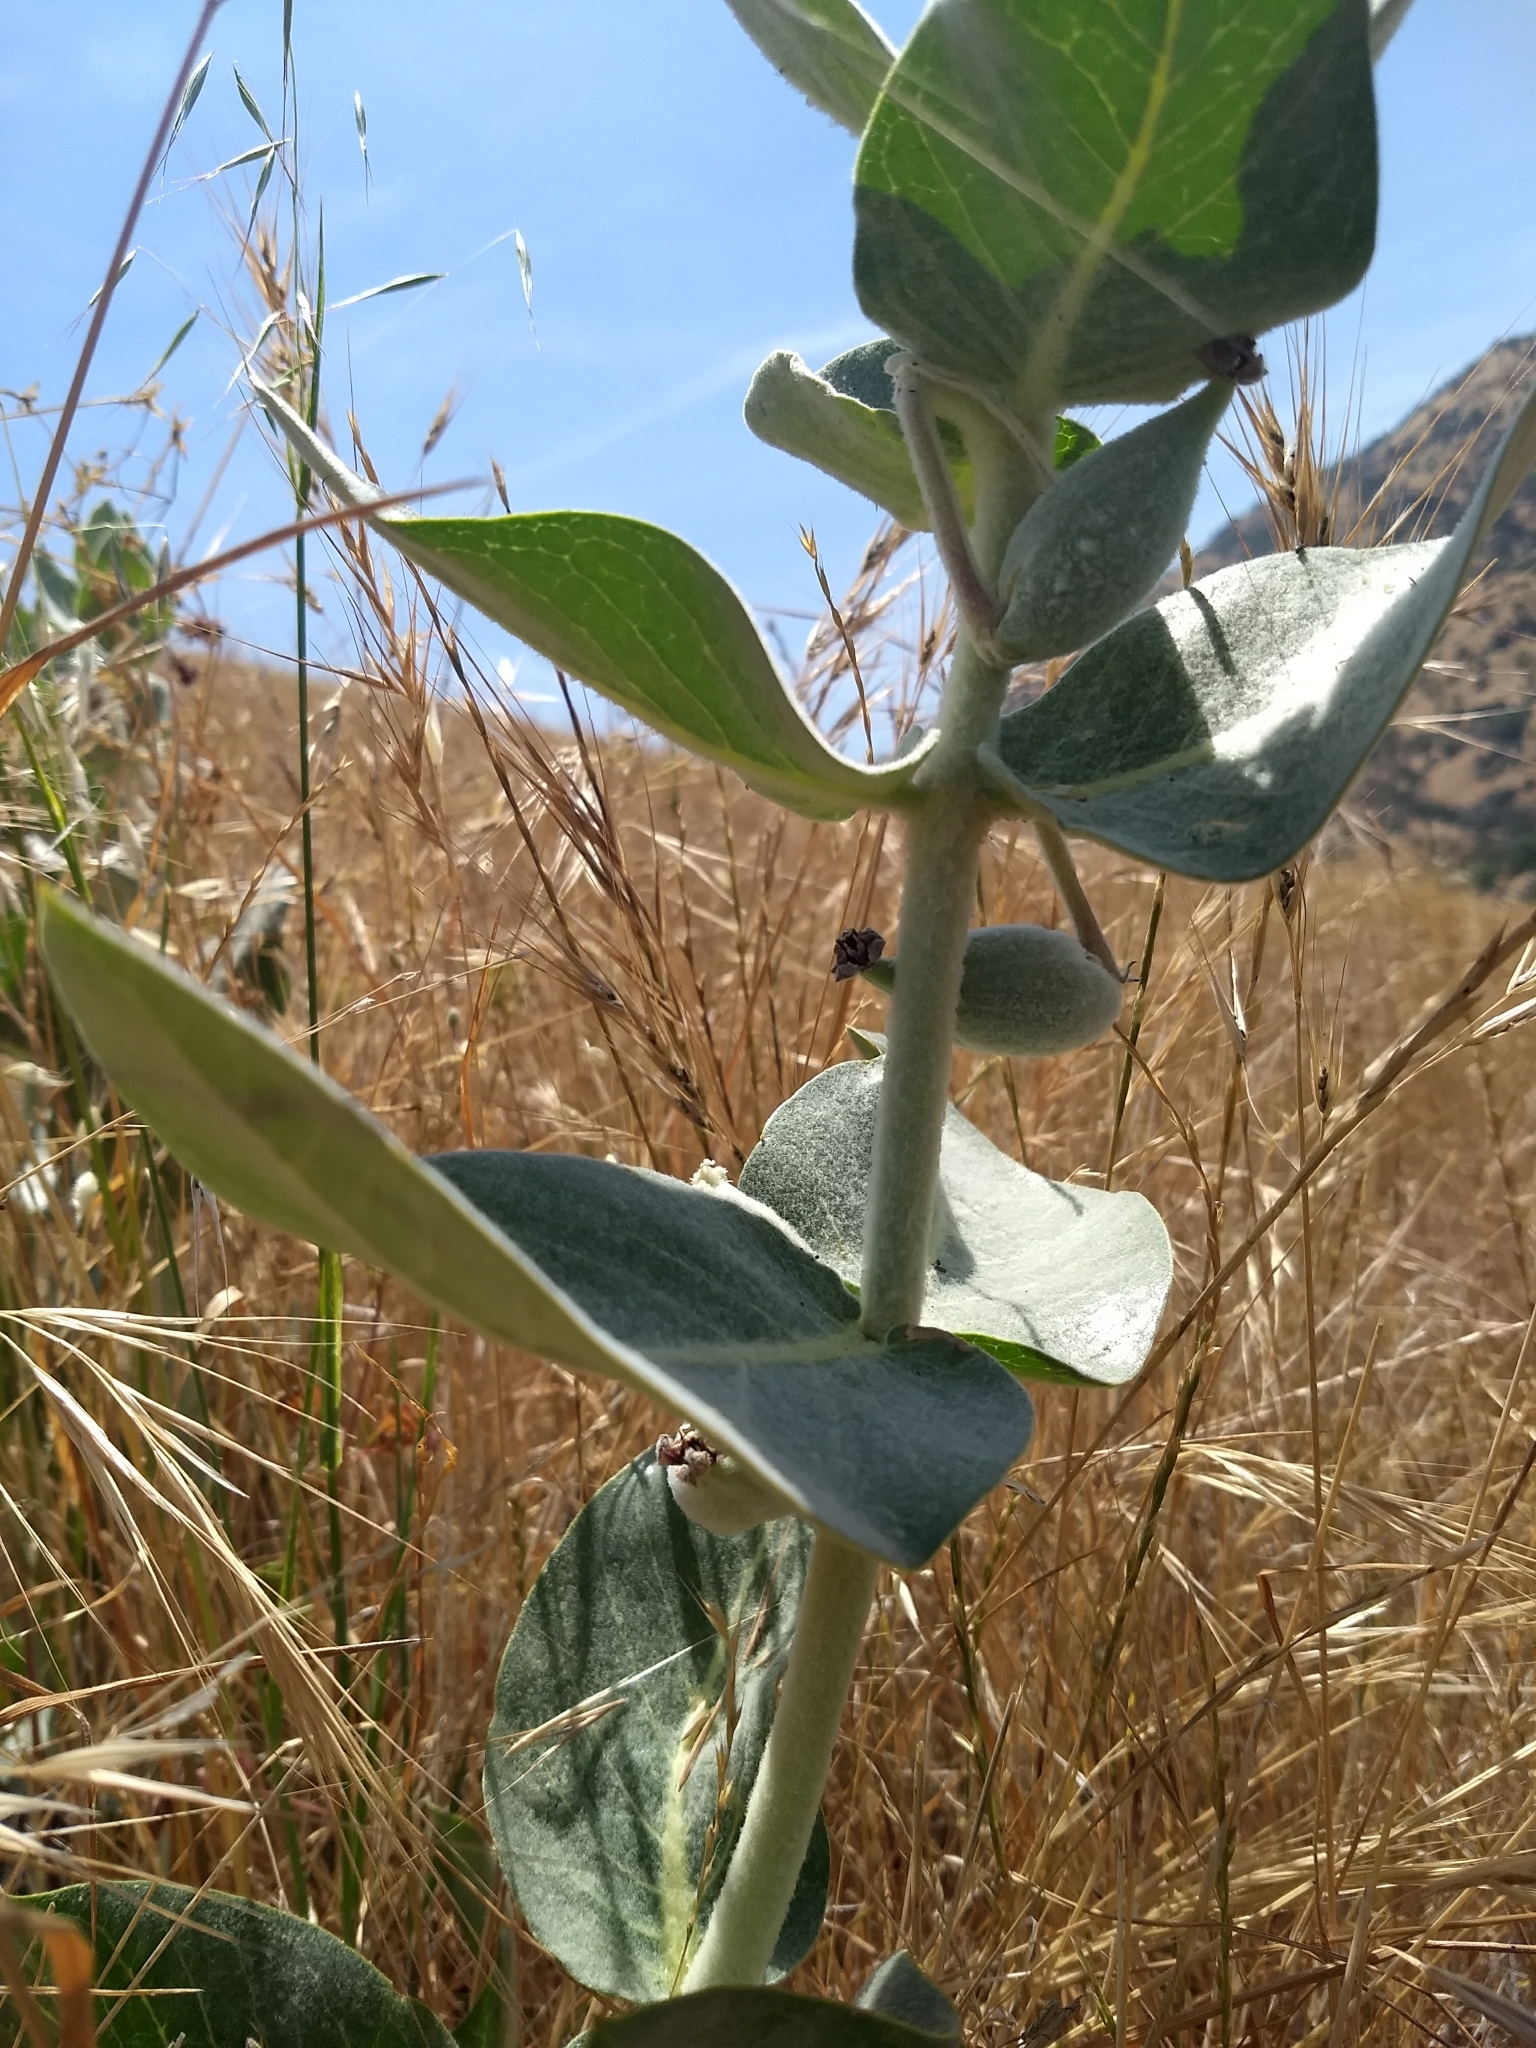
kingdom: Plantae
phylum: Tracheophyta
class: Magnoliopsida
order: Gentianales
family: Apocynaceae
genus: Asclepias
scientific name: Asclepias californica
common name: California milkweed
